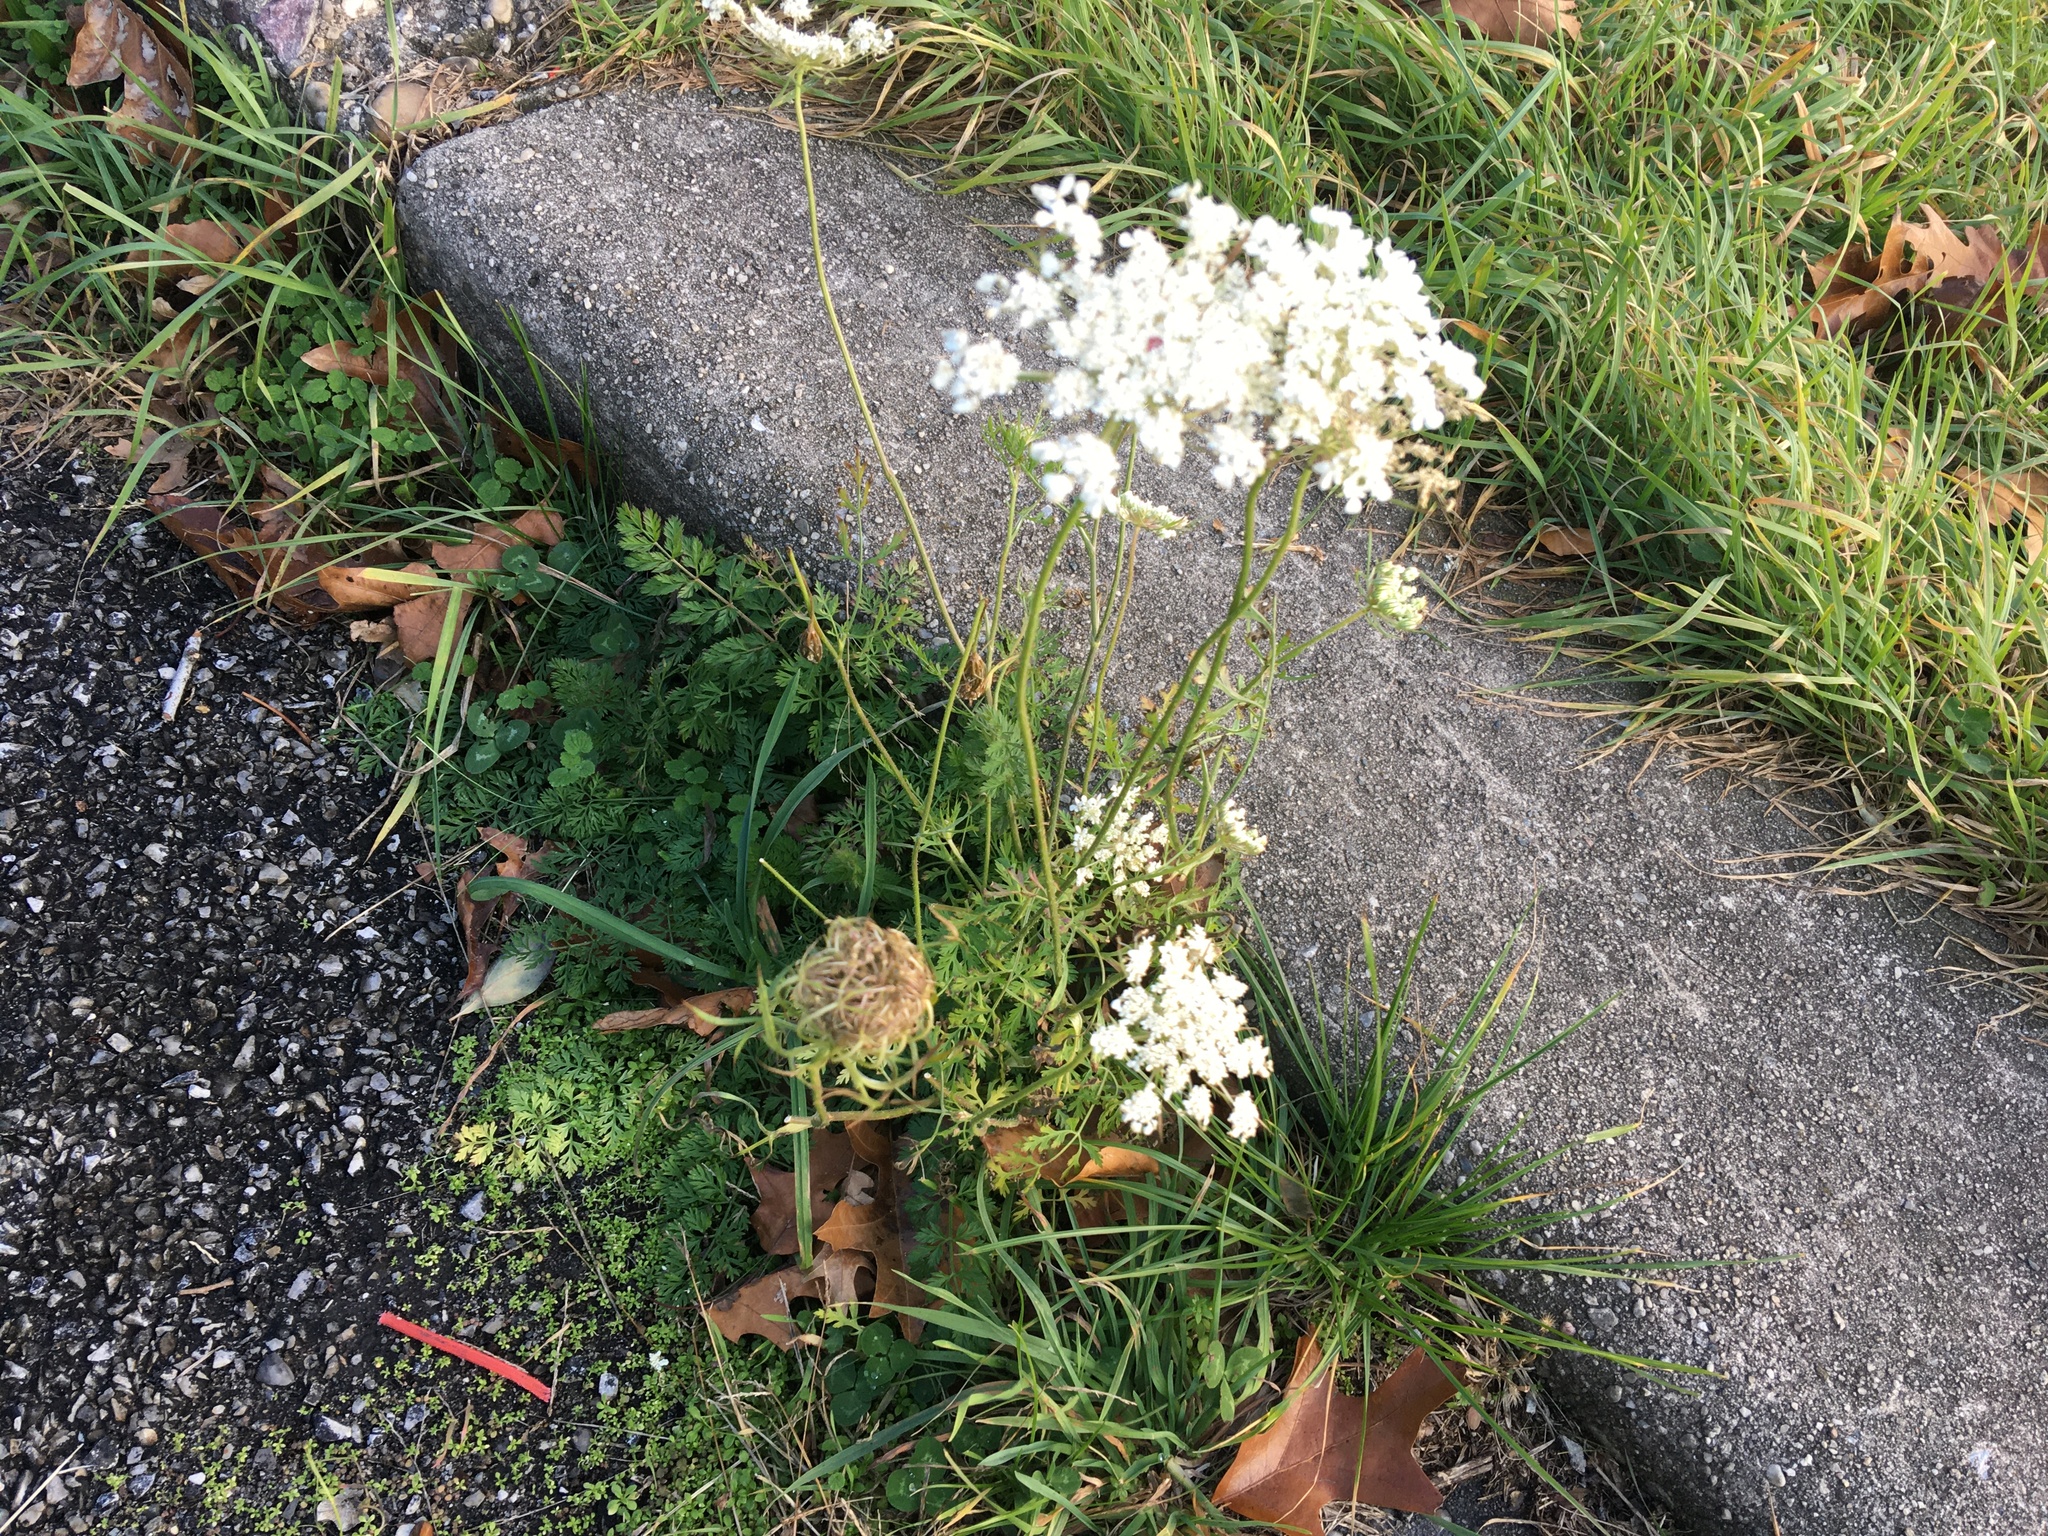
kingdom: Plantae
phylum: Tracheophyta
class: Magnoliopsida
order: Apiales
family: Apiaceae
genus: Daucus
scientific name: Daucus carota
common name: Wild carrot
